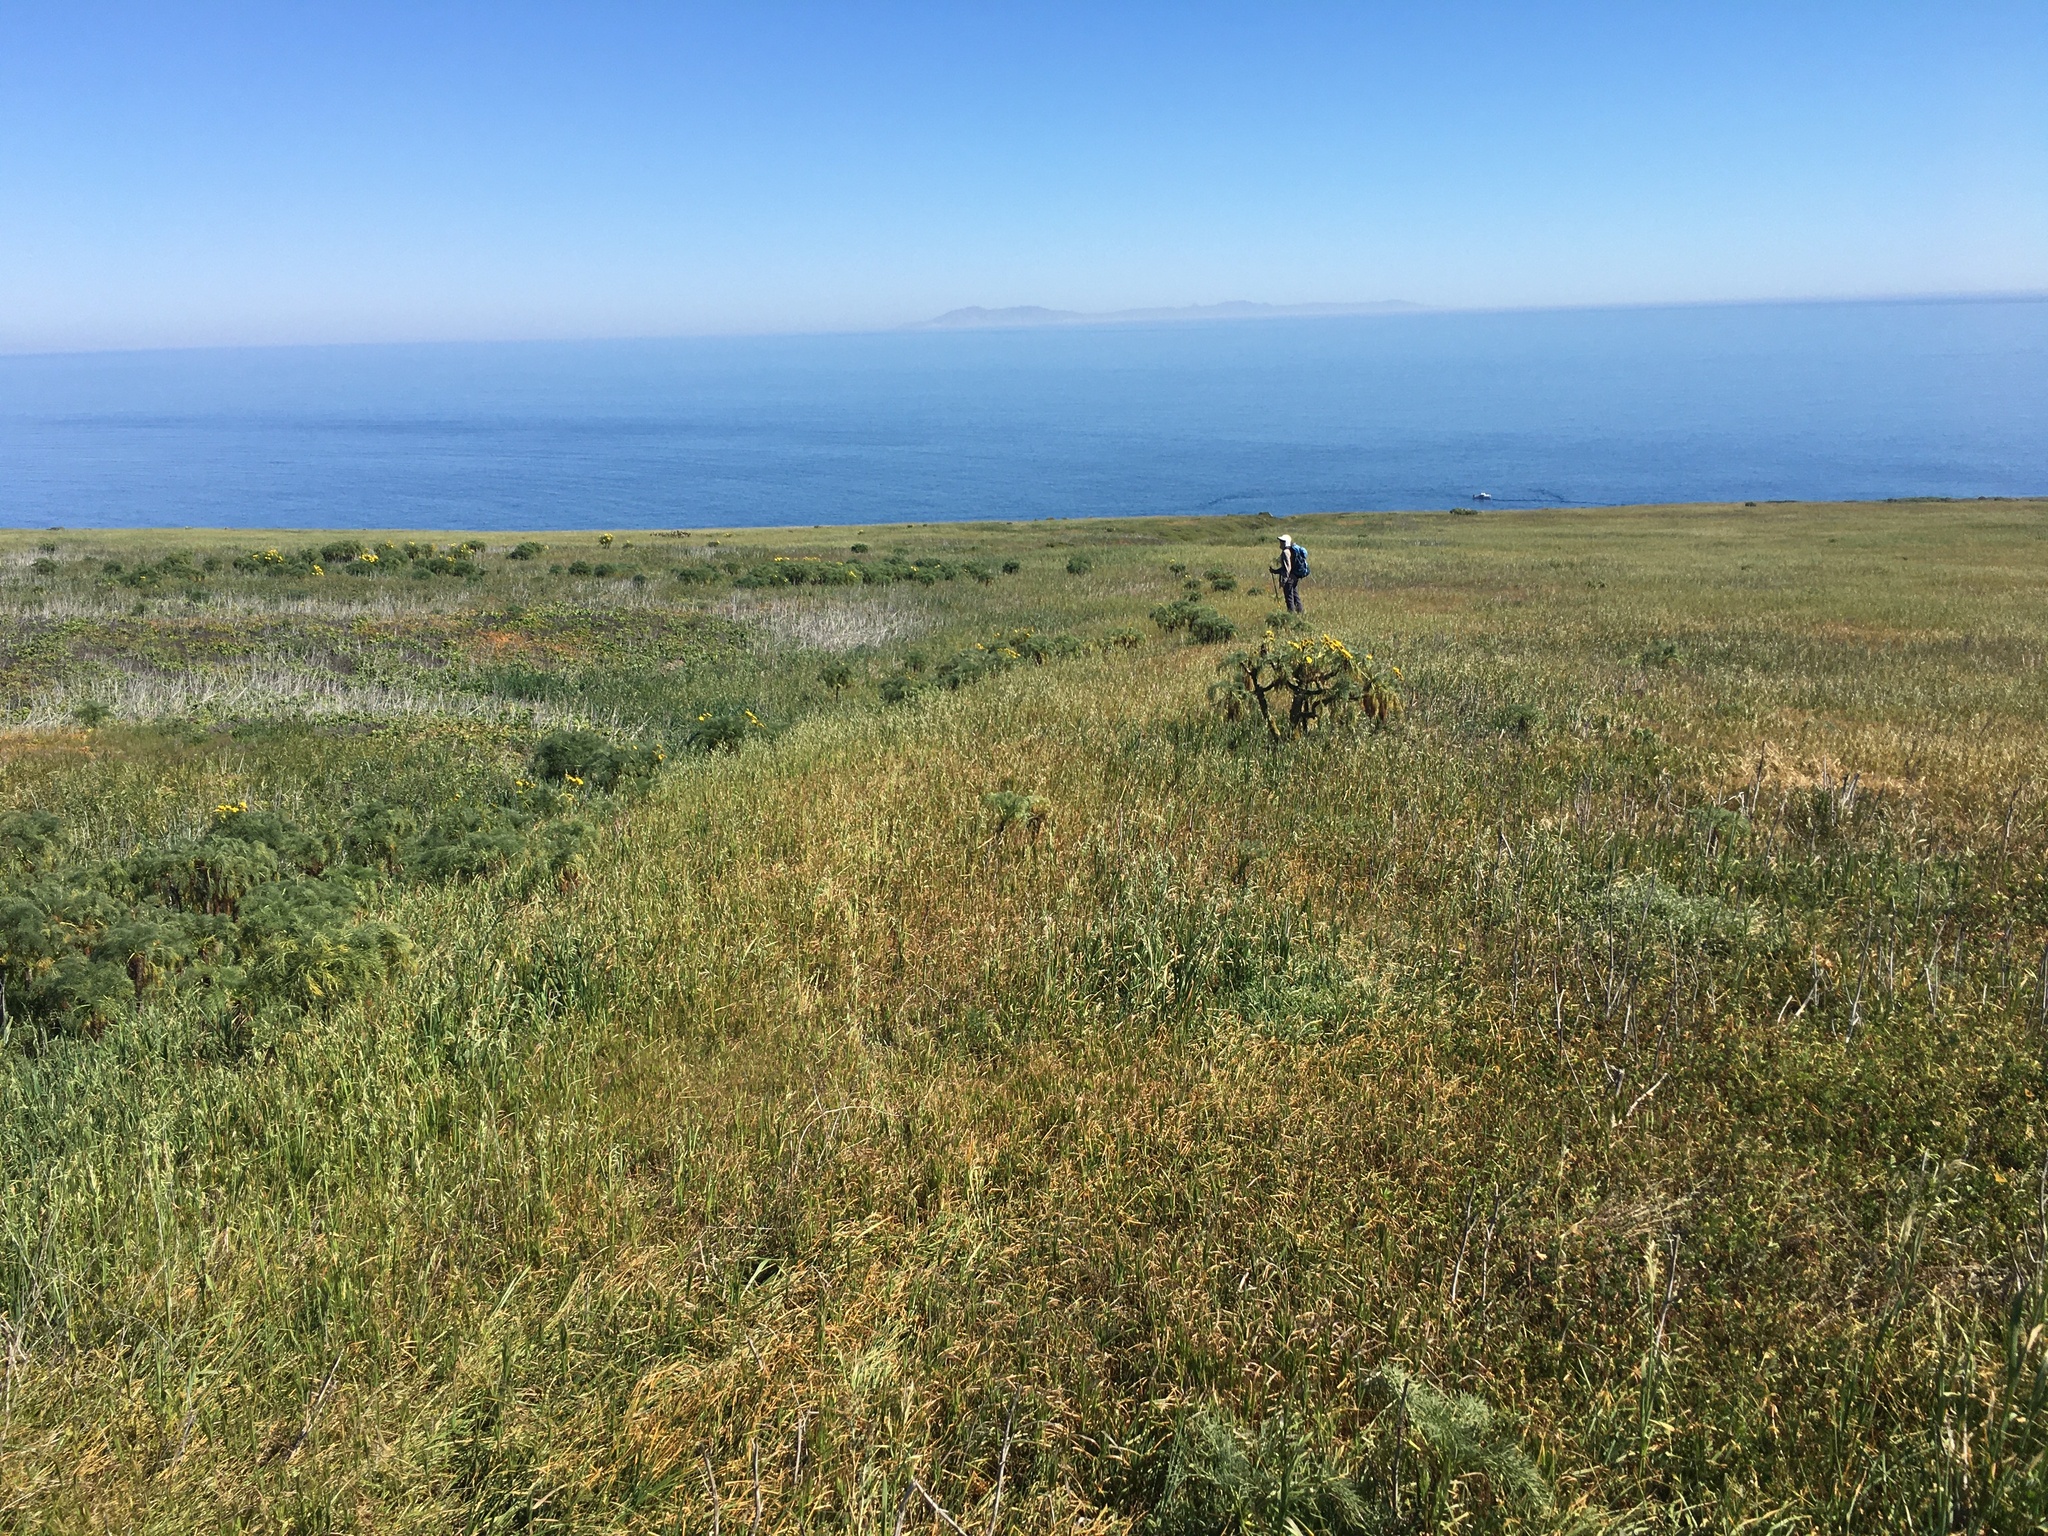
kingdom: Plantae
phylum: Tracheophyta
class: Magnoliopsida
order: Asterales
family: Asteraceae
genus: Coreopsis
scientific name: Coreopsis gigantea
